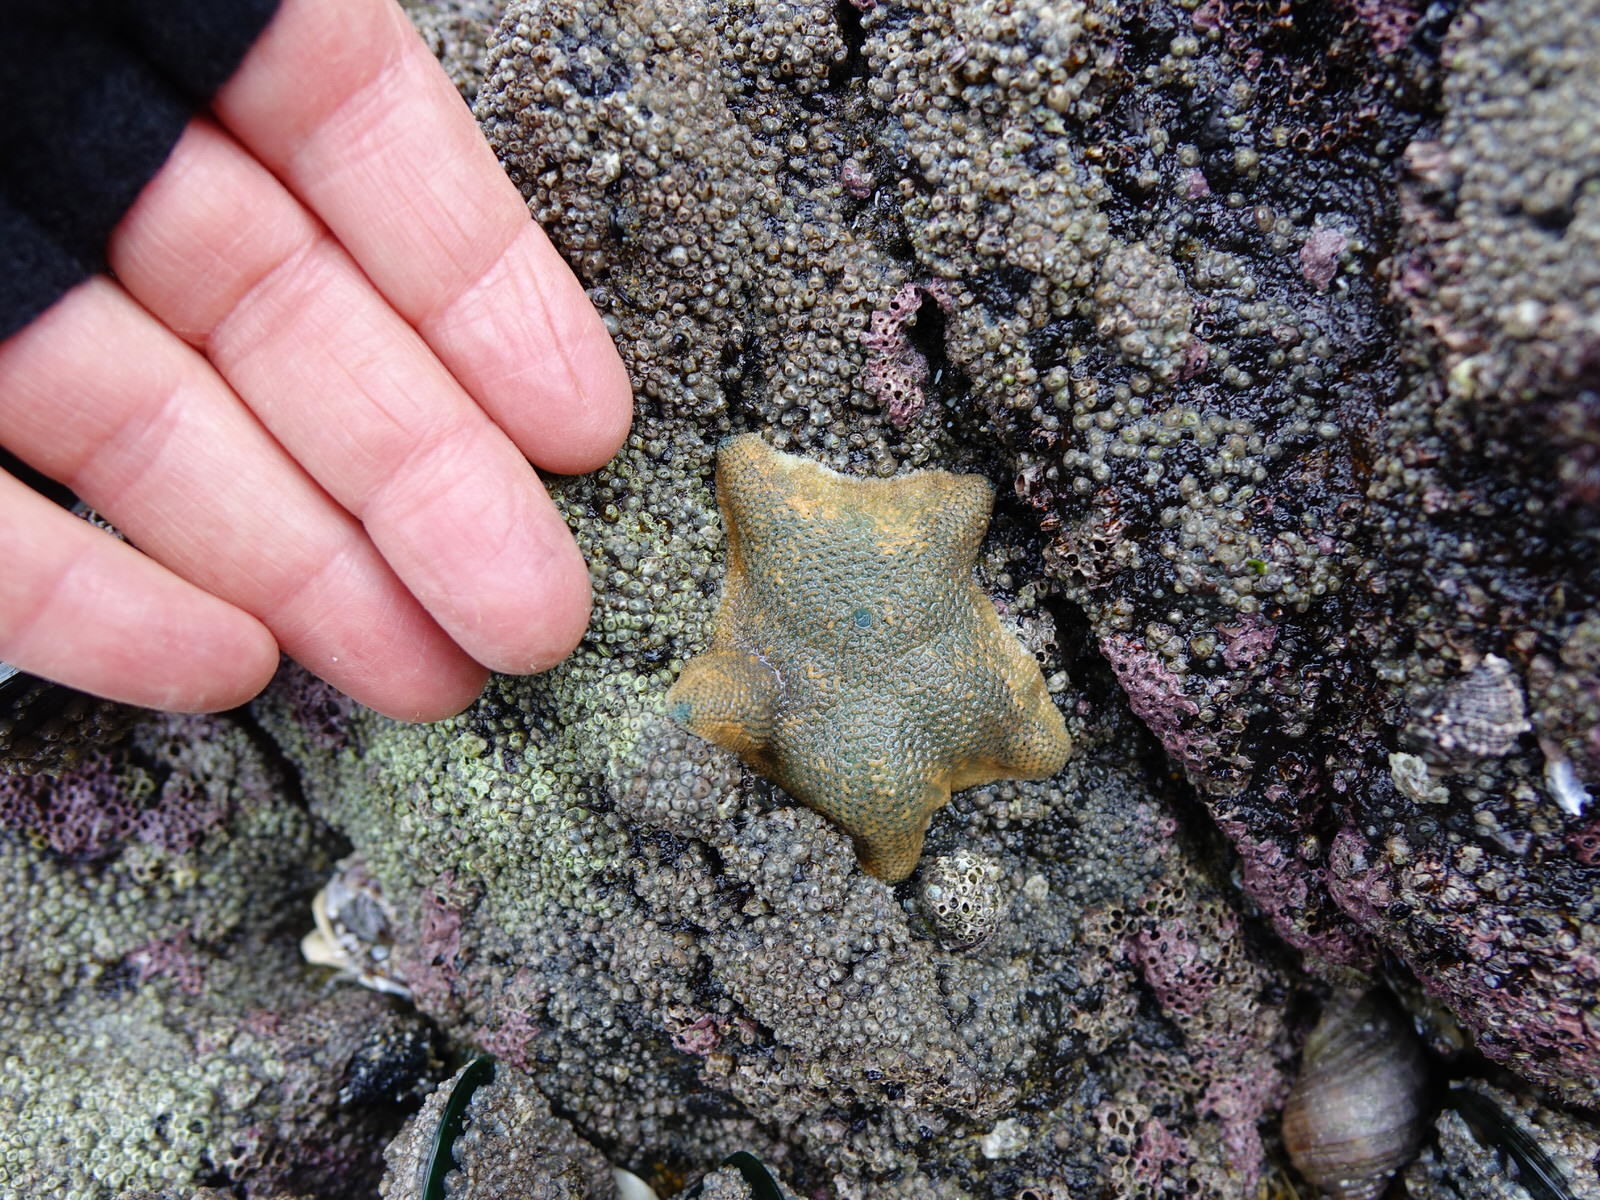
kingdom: Animalia
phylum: Echinodermata
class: Asteroidea
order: Valvatida
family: Asterinidae
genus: Patiriella
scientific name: Patiriella regularis
